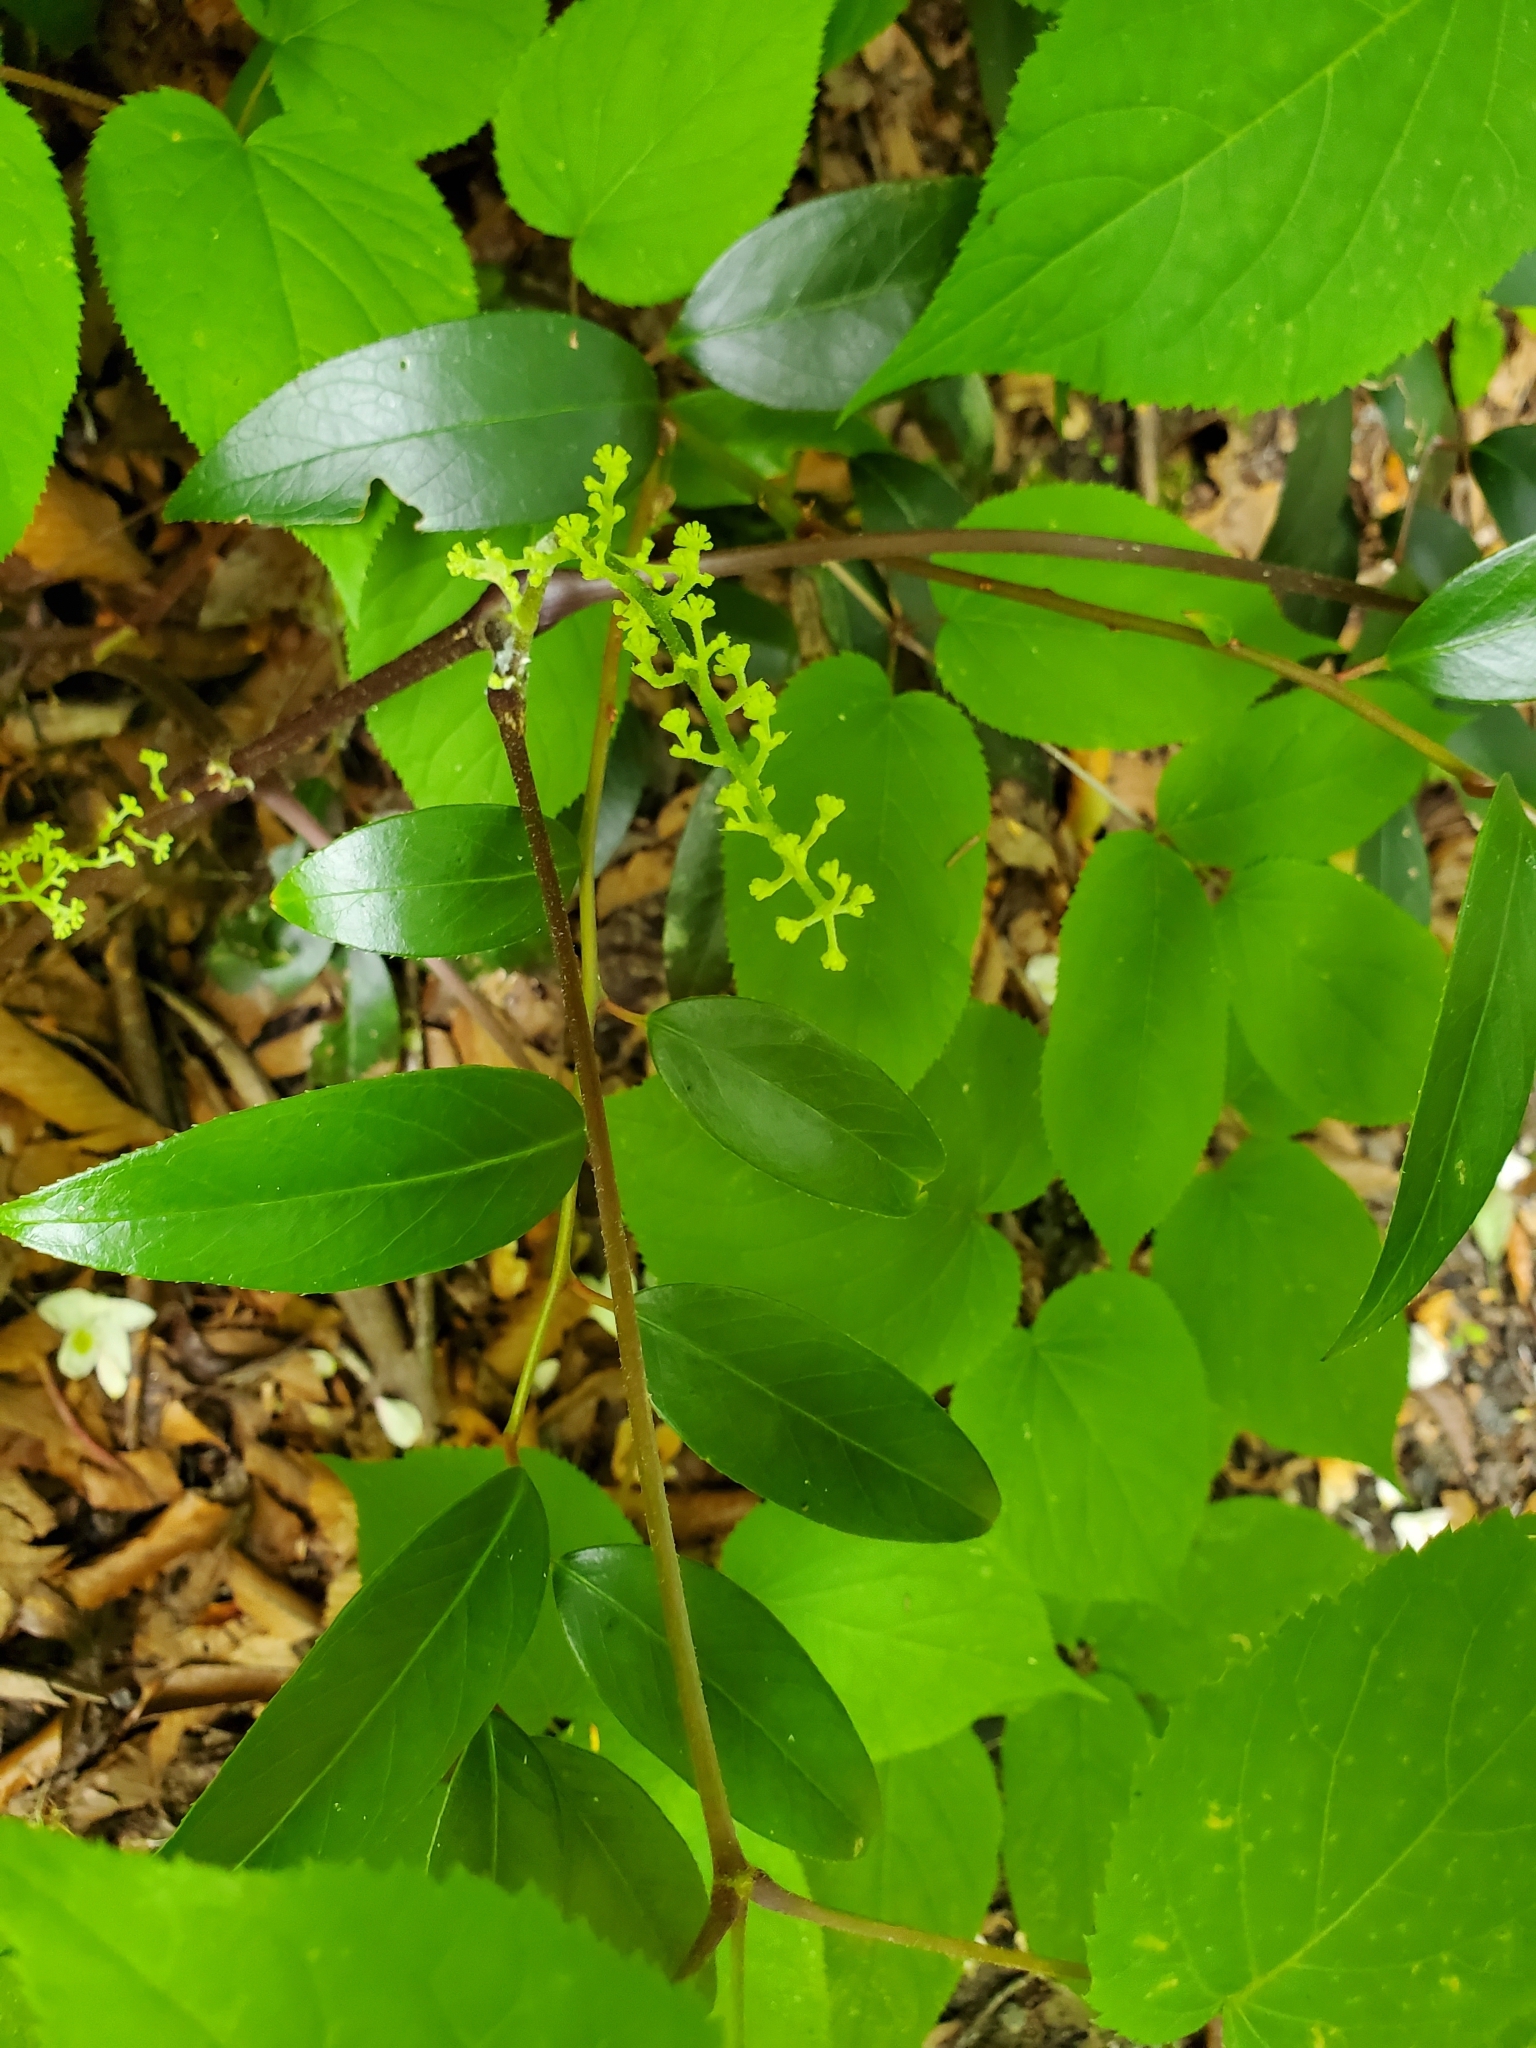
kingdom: Plantae
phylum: Tracheophyta
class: Magnoliopsida
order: Apiales
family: Araliaceae
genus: Aralia
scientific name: Aralia racemosa
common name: American-spikenard
